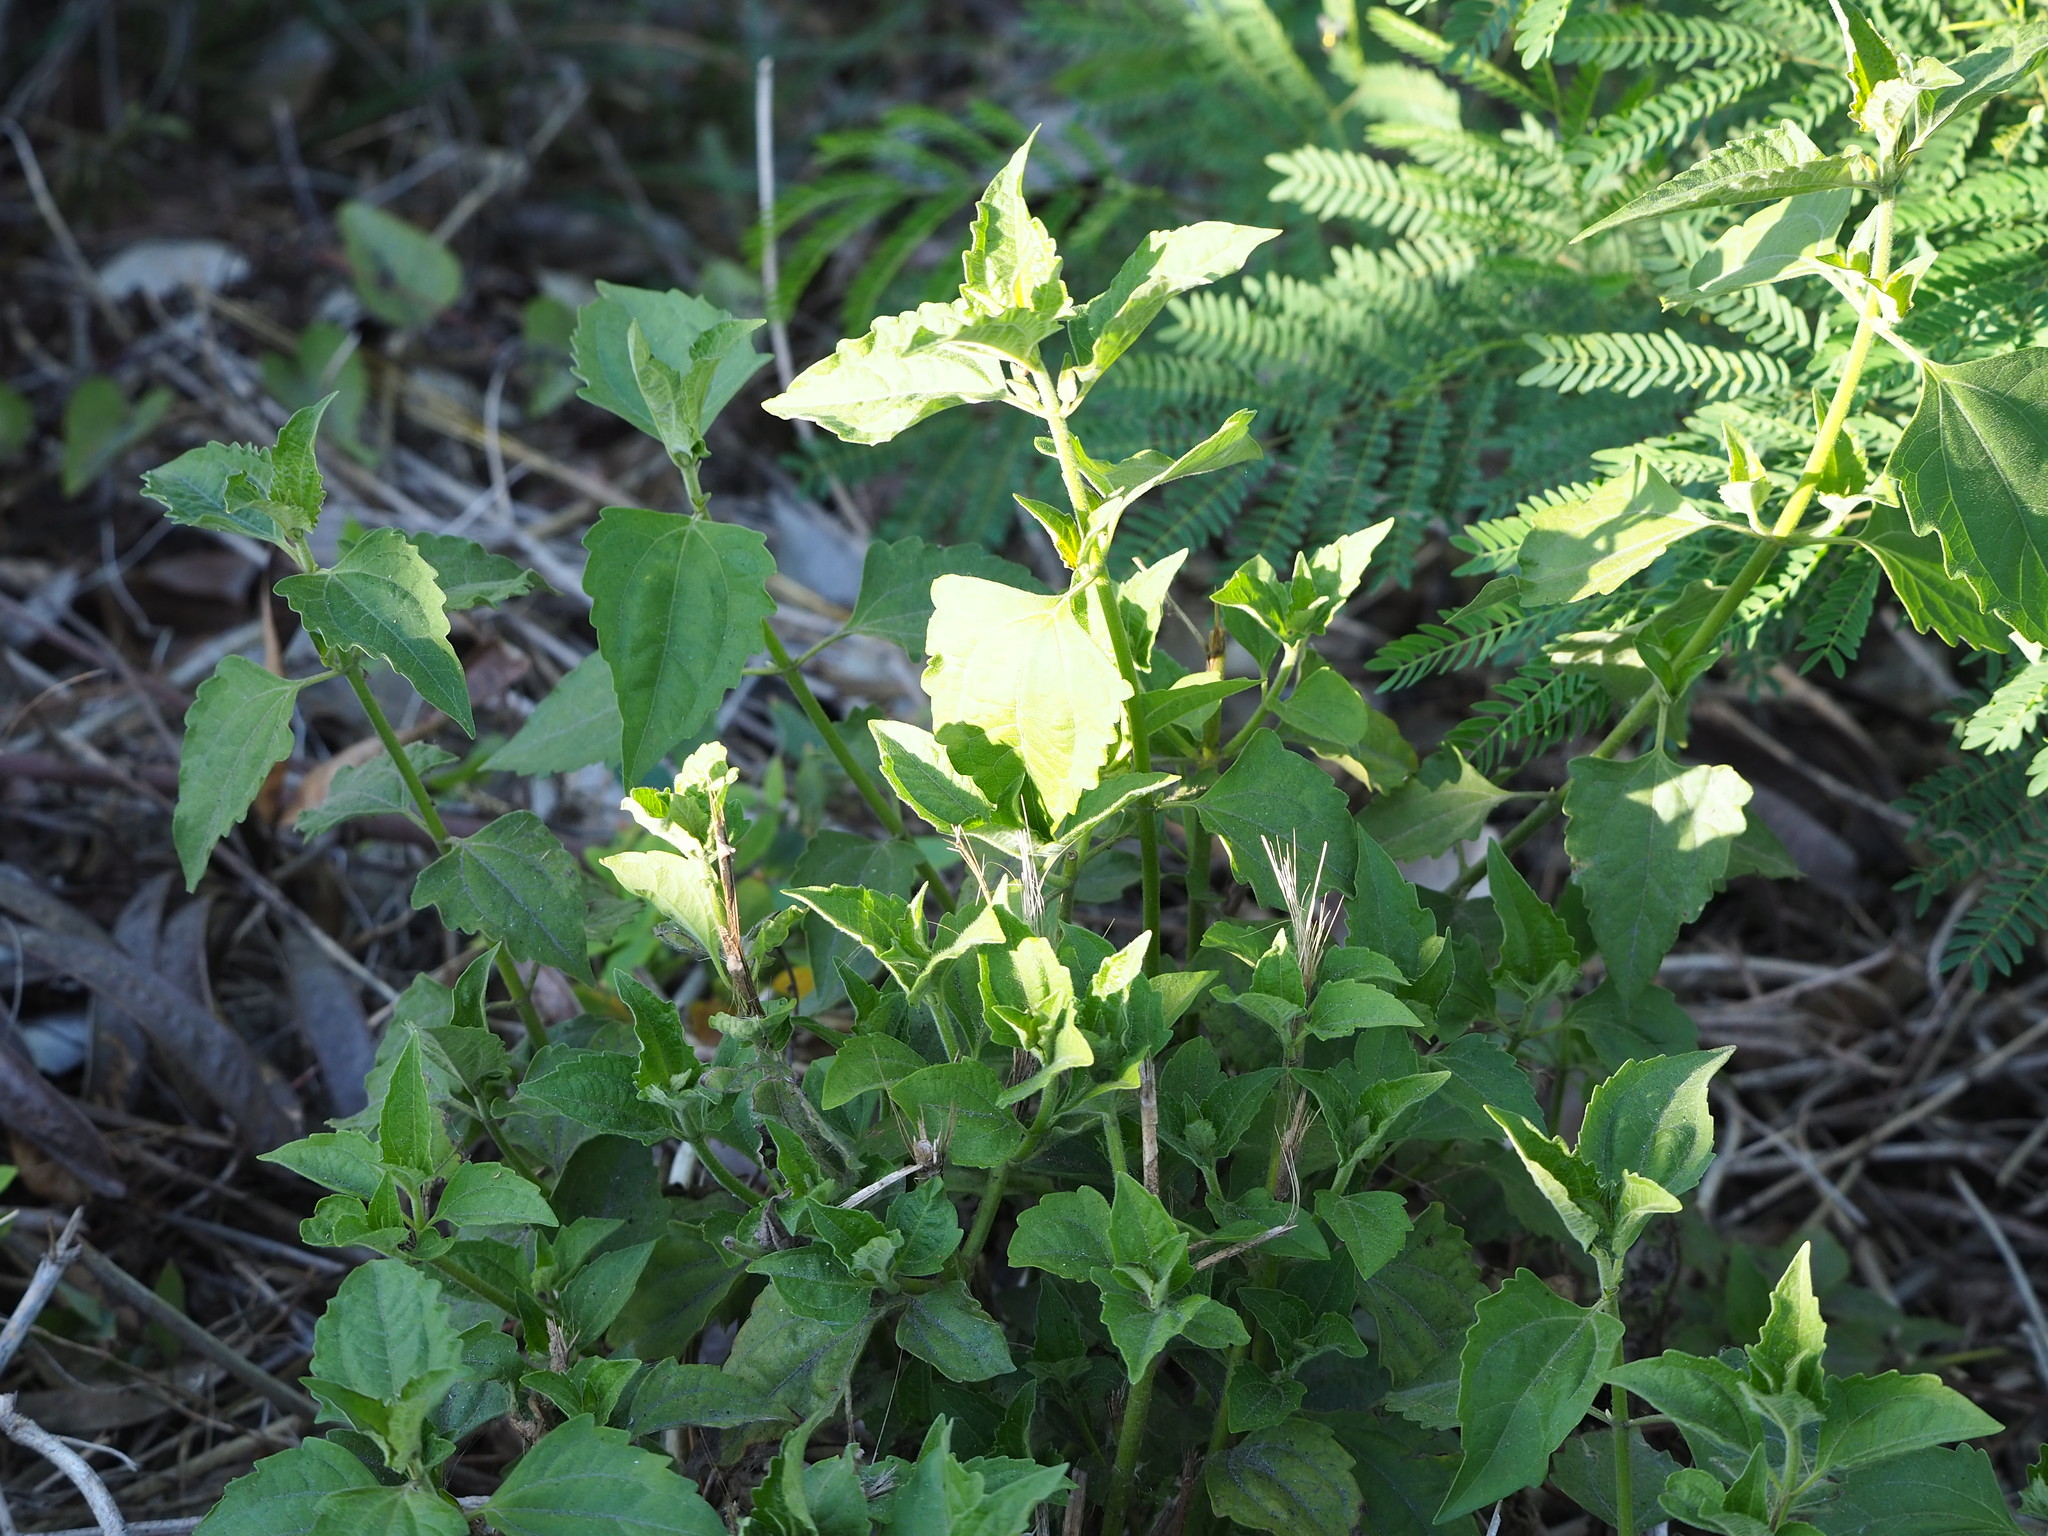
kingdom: Plantae
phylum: Tracheophyta
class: Magnoliopsida
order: Asterales
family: Asteraceae
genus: Chromolaena
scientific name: Chromolaena odorata
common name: Siamweed
